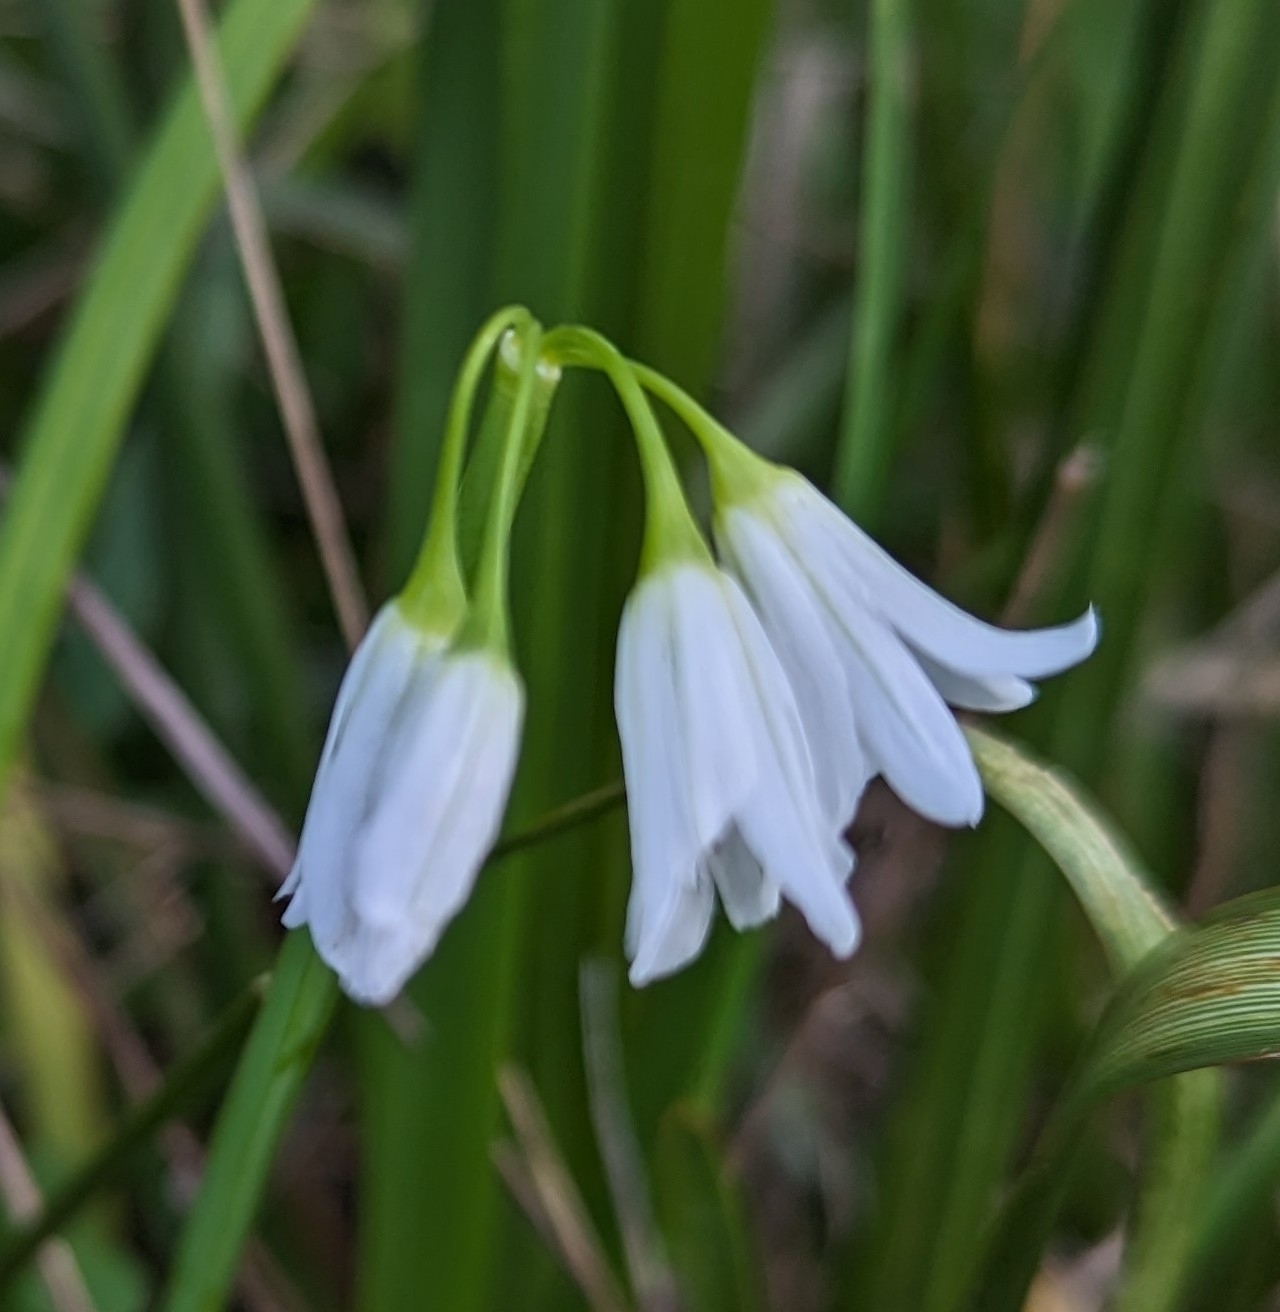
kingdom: Plantae
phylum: Tracheophyta
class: Liliopsida
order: Asparagales
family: Amaryllidaceae
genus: Allium
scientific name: Allium triquetrum
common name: Three-cornered garlic
